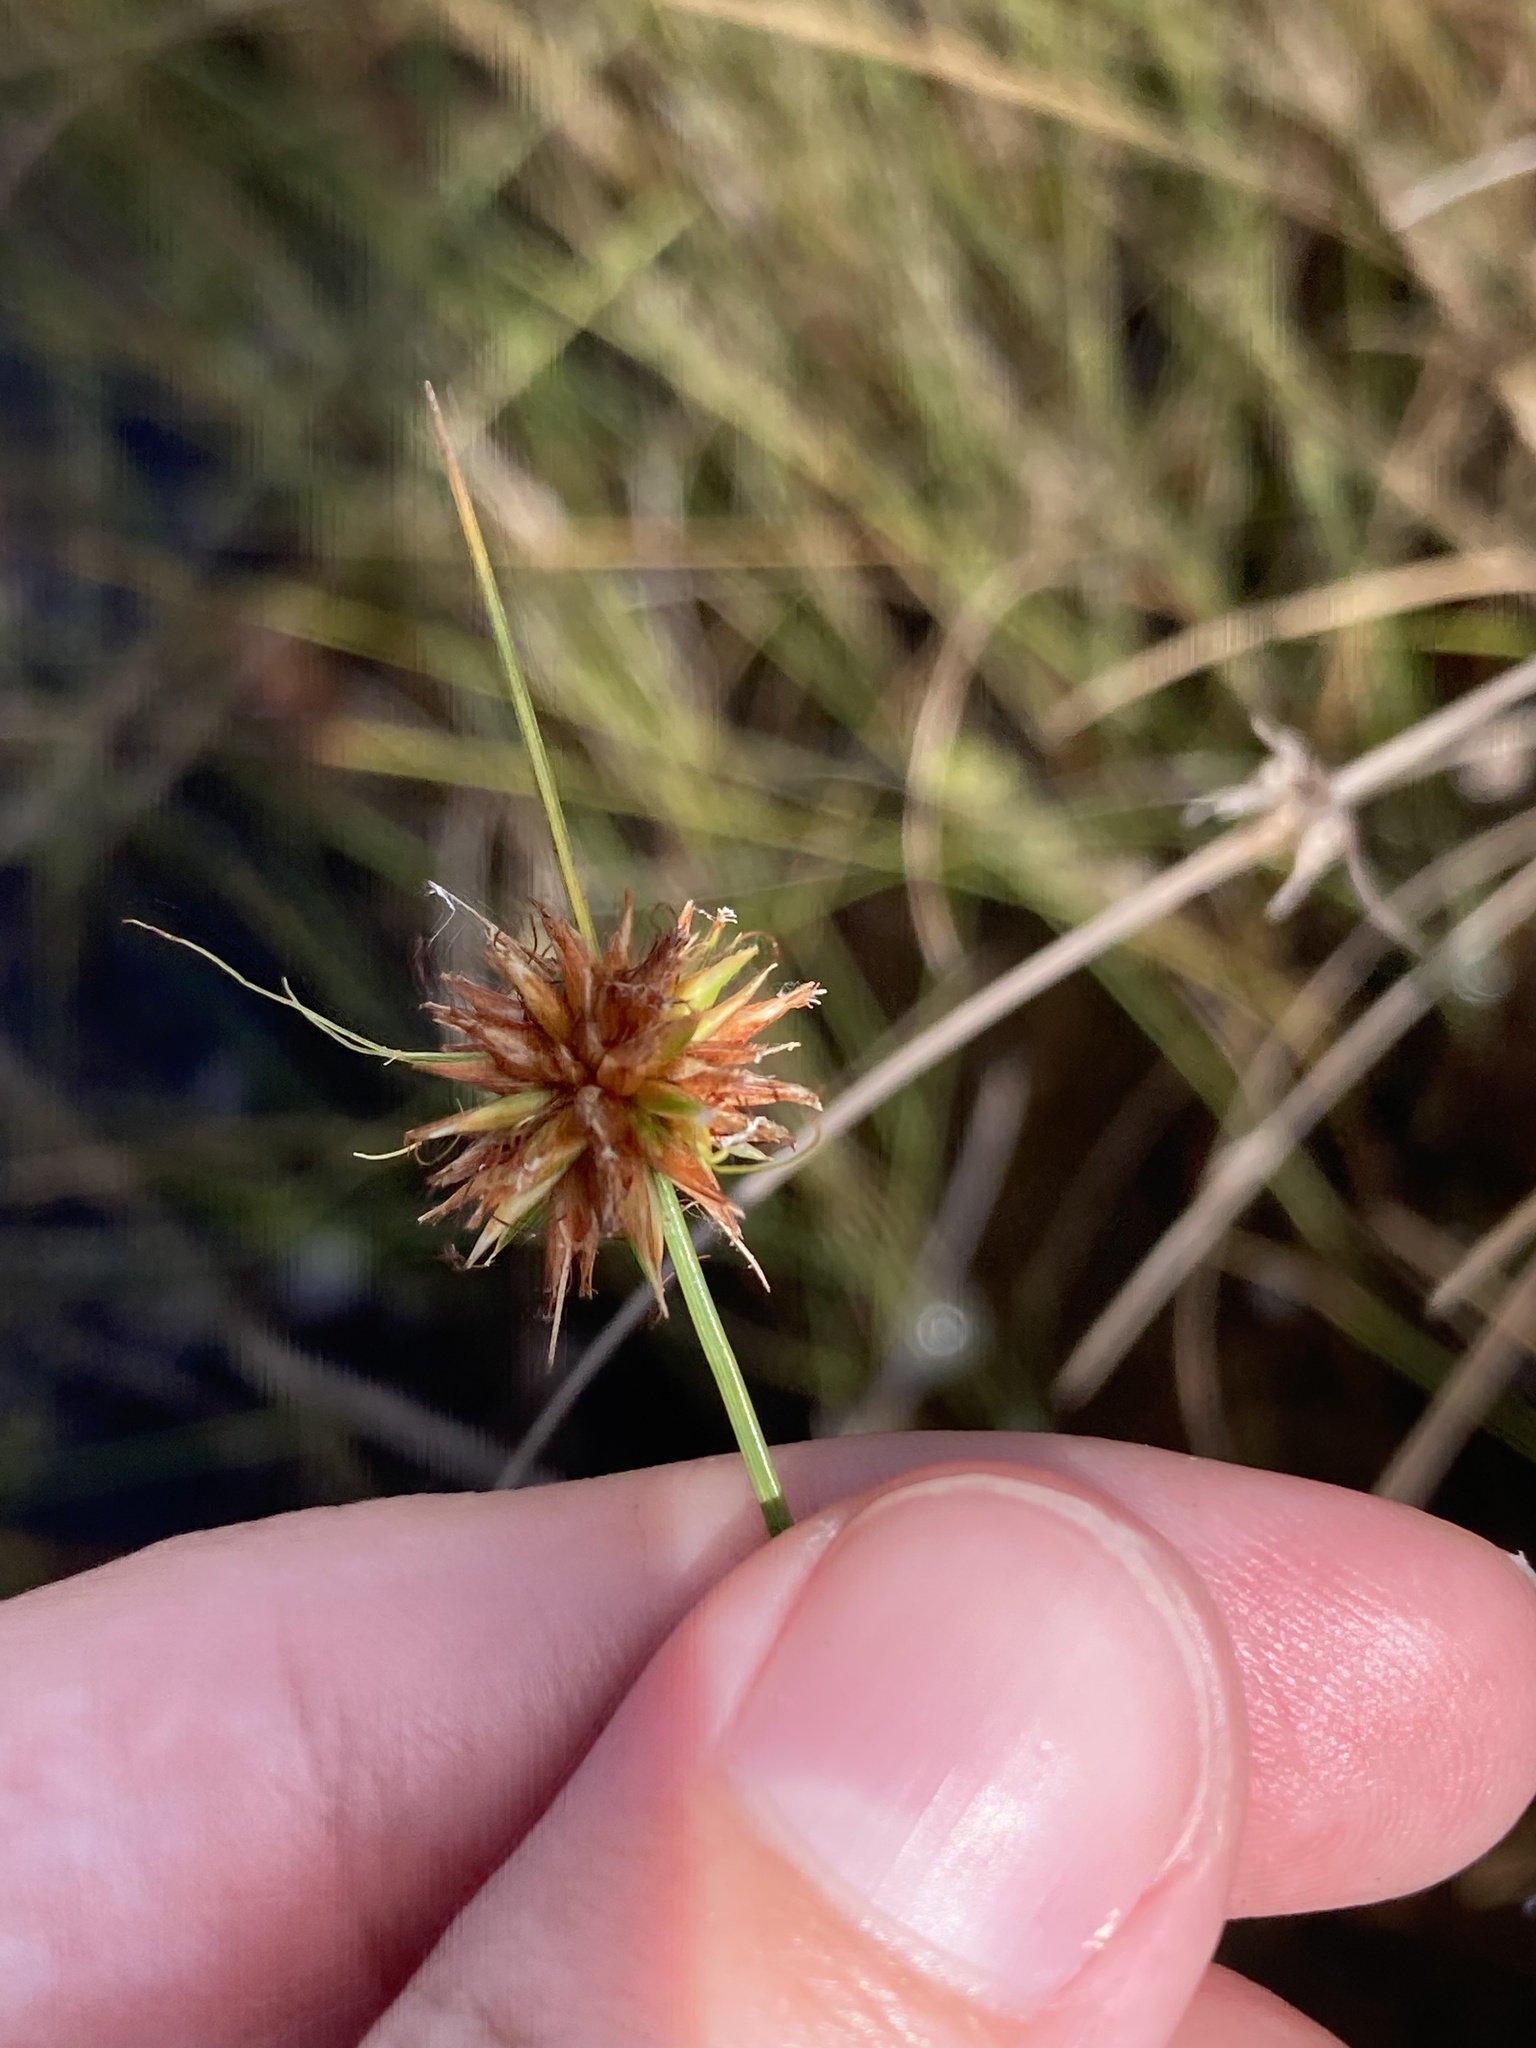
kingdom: Plantae
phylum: Tracheophyta
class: Liliopsida
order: Poales
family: Cyperaceae
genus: Rhynchospora
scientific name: Rhynchospora tracyi
